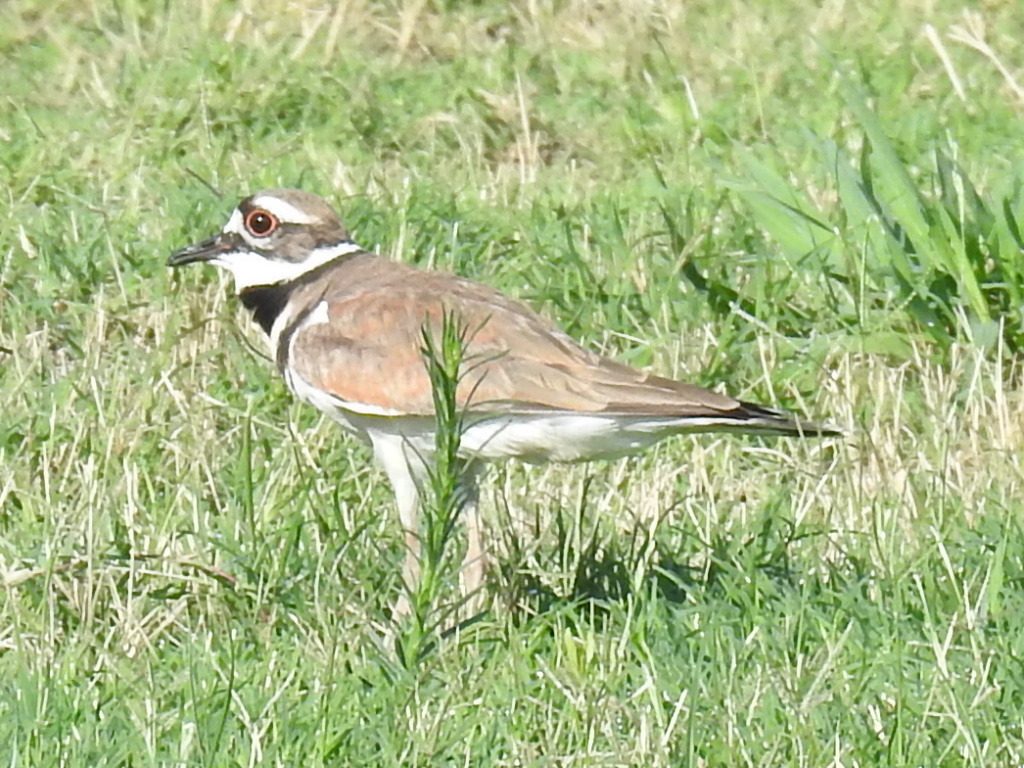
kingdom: Animalia
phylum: Chordata
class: Aves
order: Charadriiformes
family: Charadriidae
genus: Charadrius
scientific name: Charadrius vociferus
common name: Killdeer
